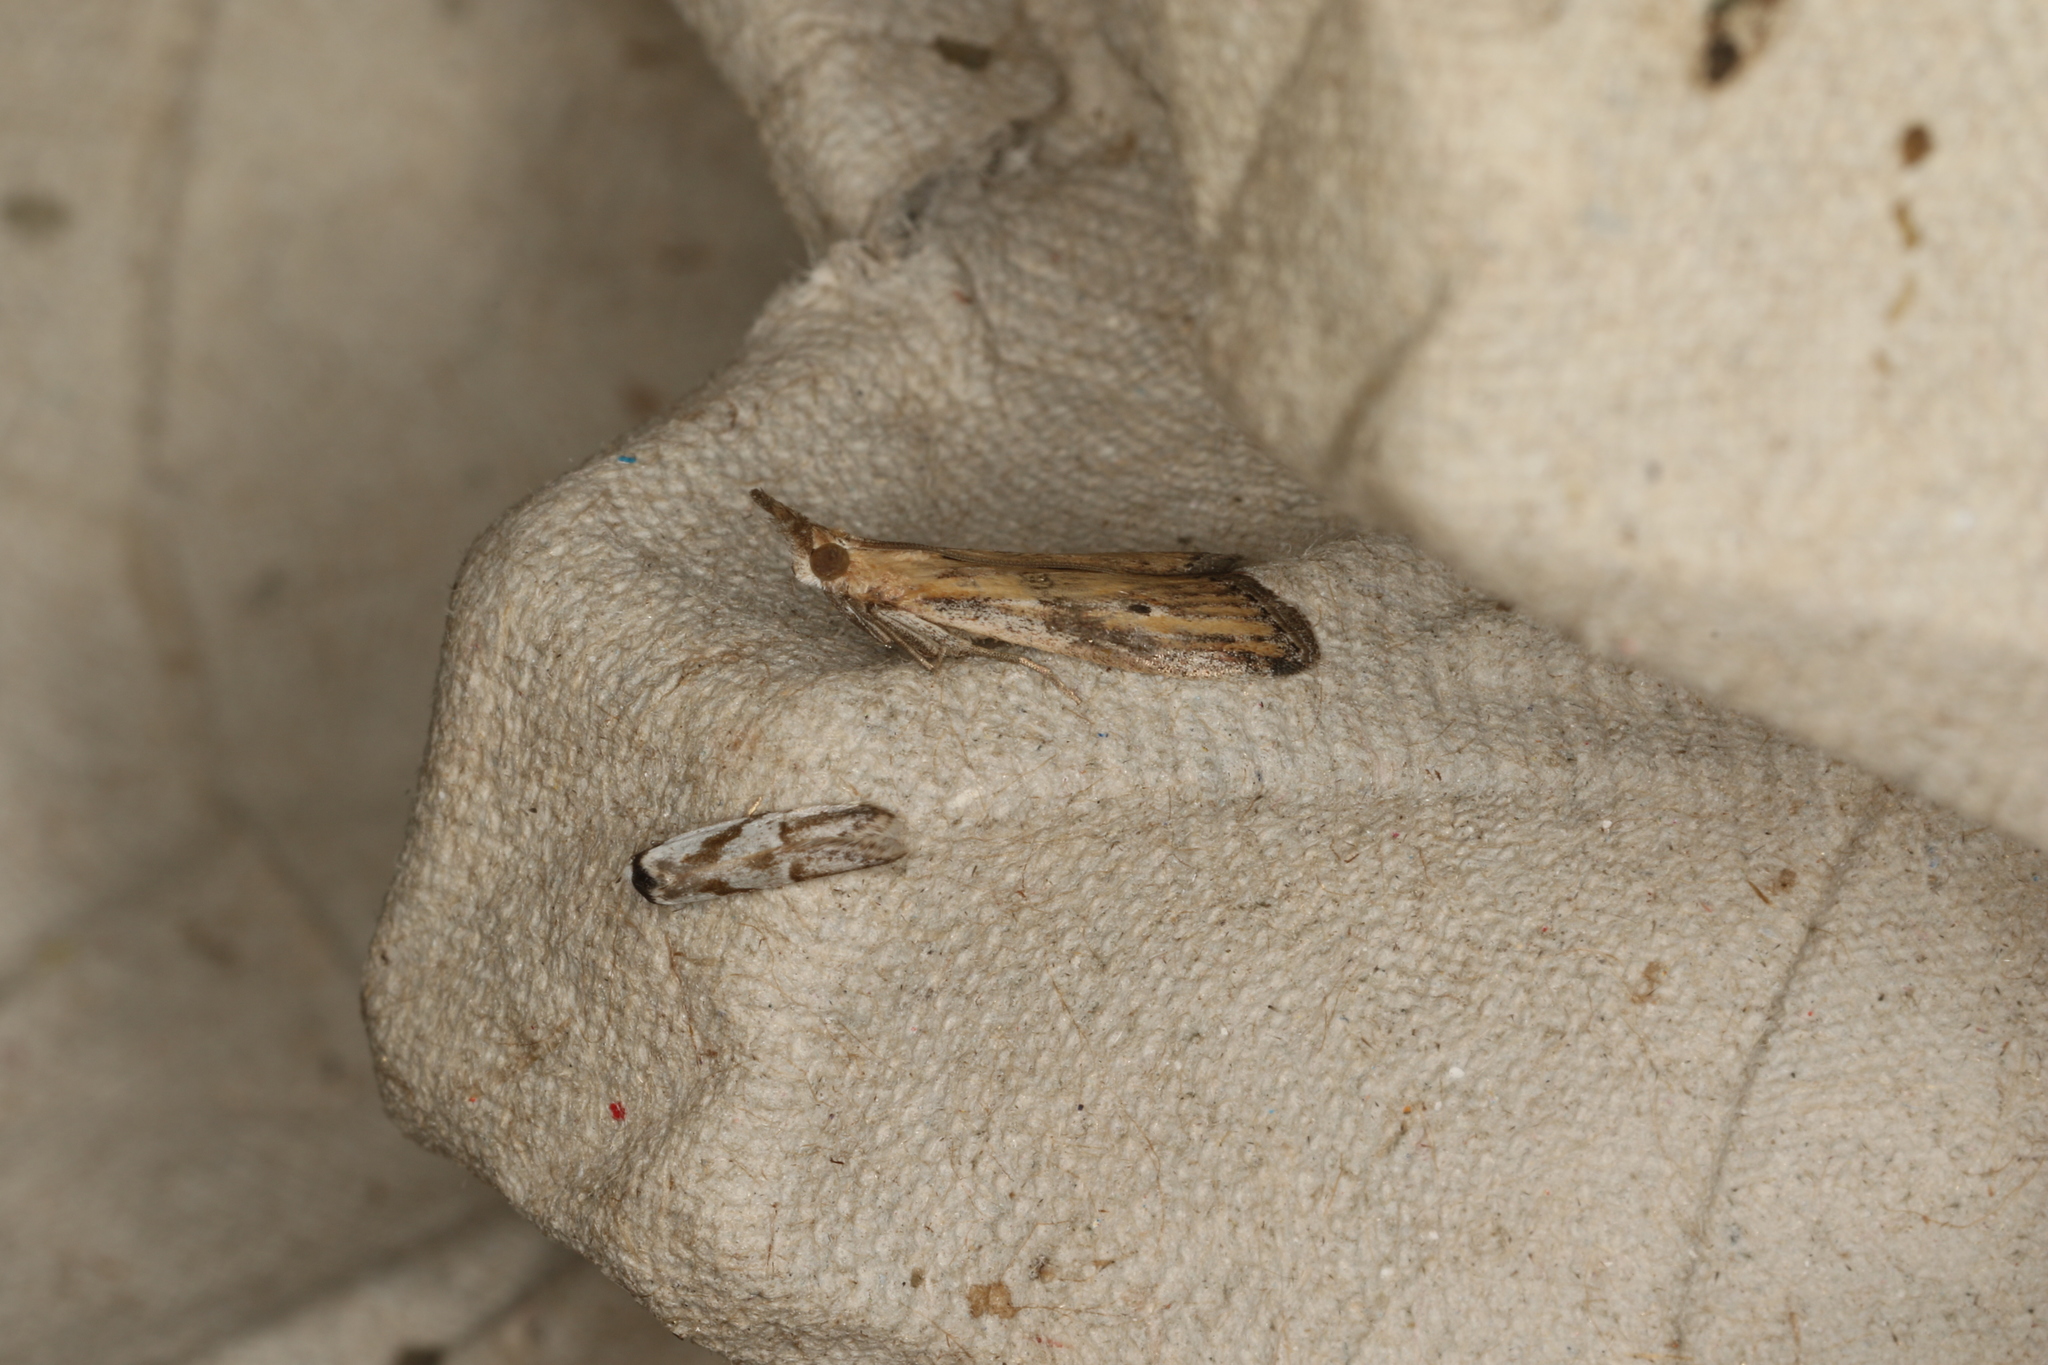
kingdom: Animalia
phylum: Arthropoda
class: Insecta
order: Lepidoptera
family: Pyralidae
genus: Faveria
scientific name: Faveria tritalis
